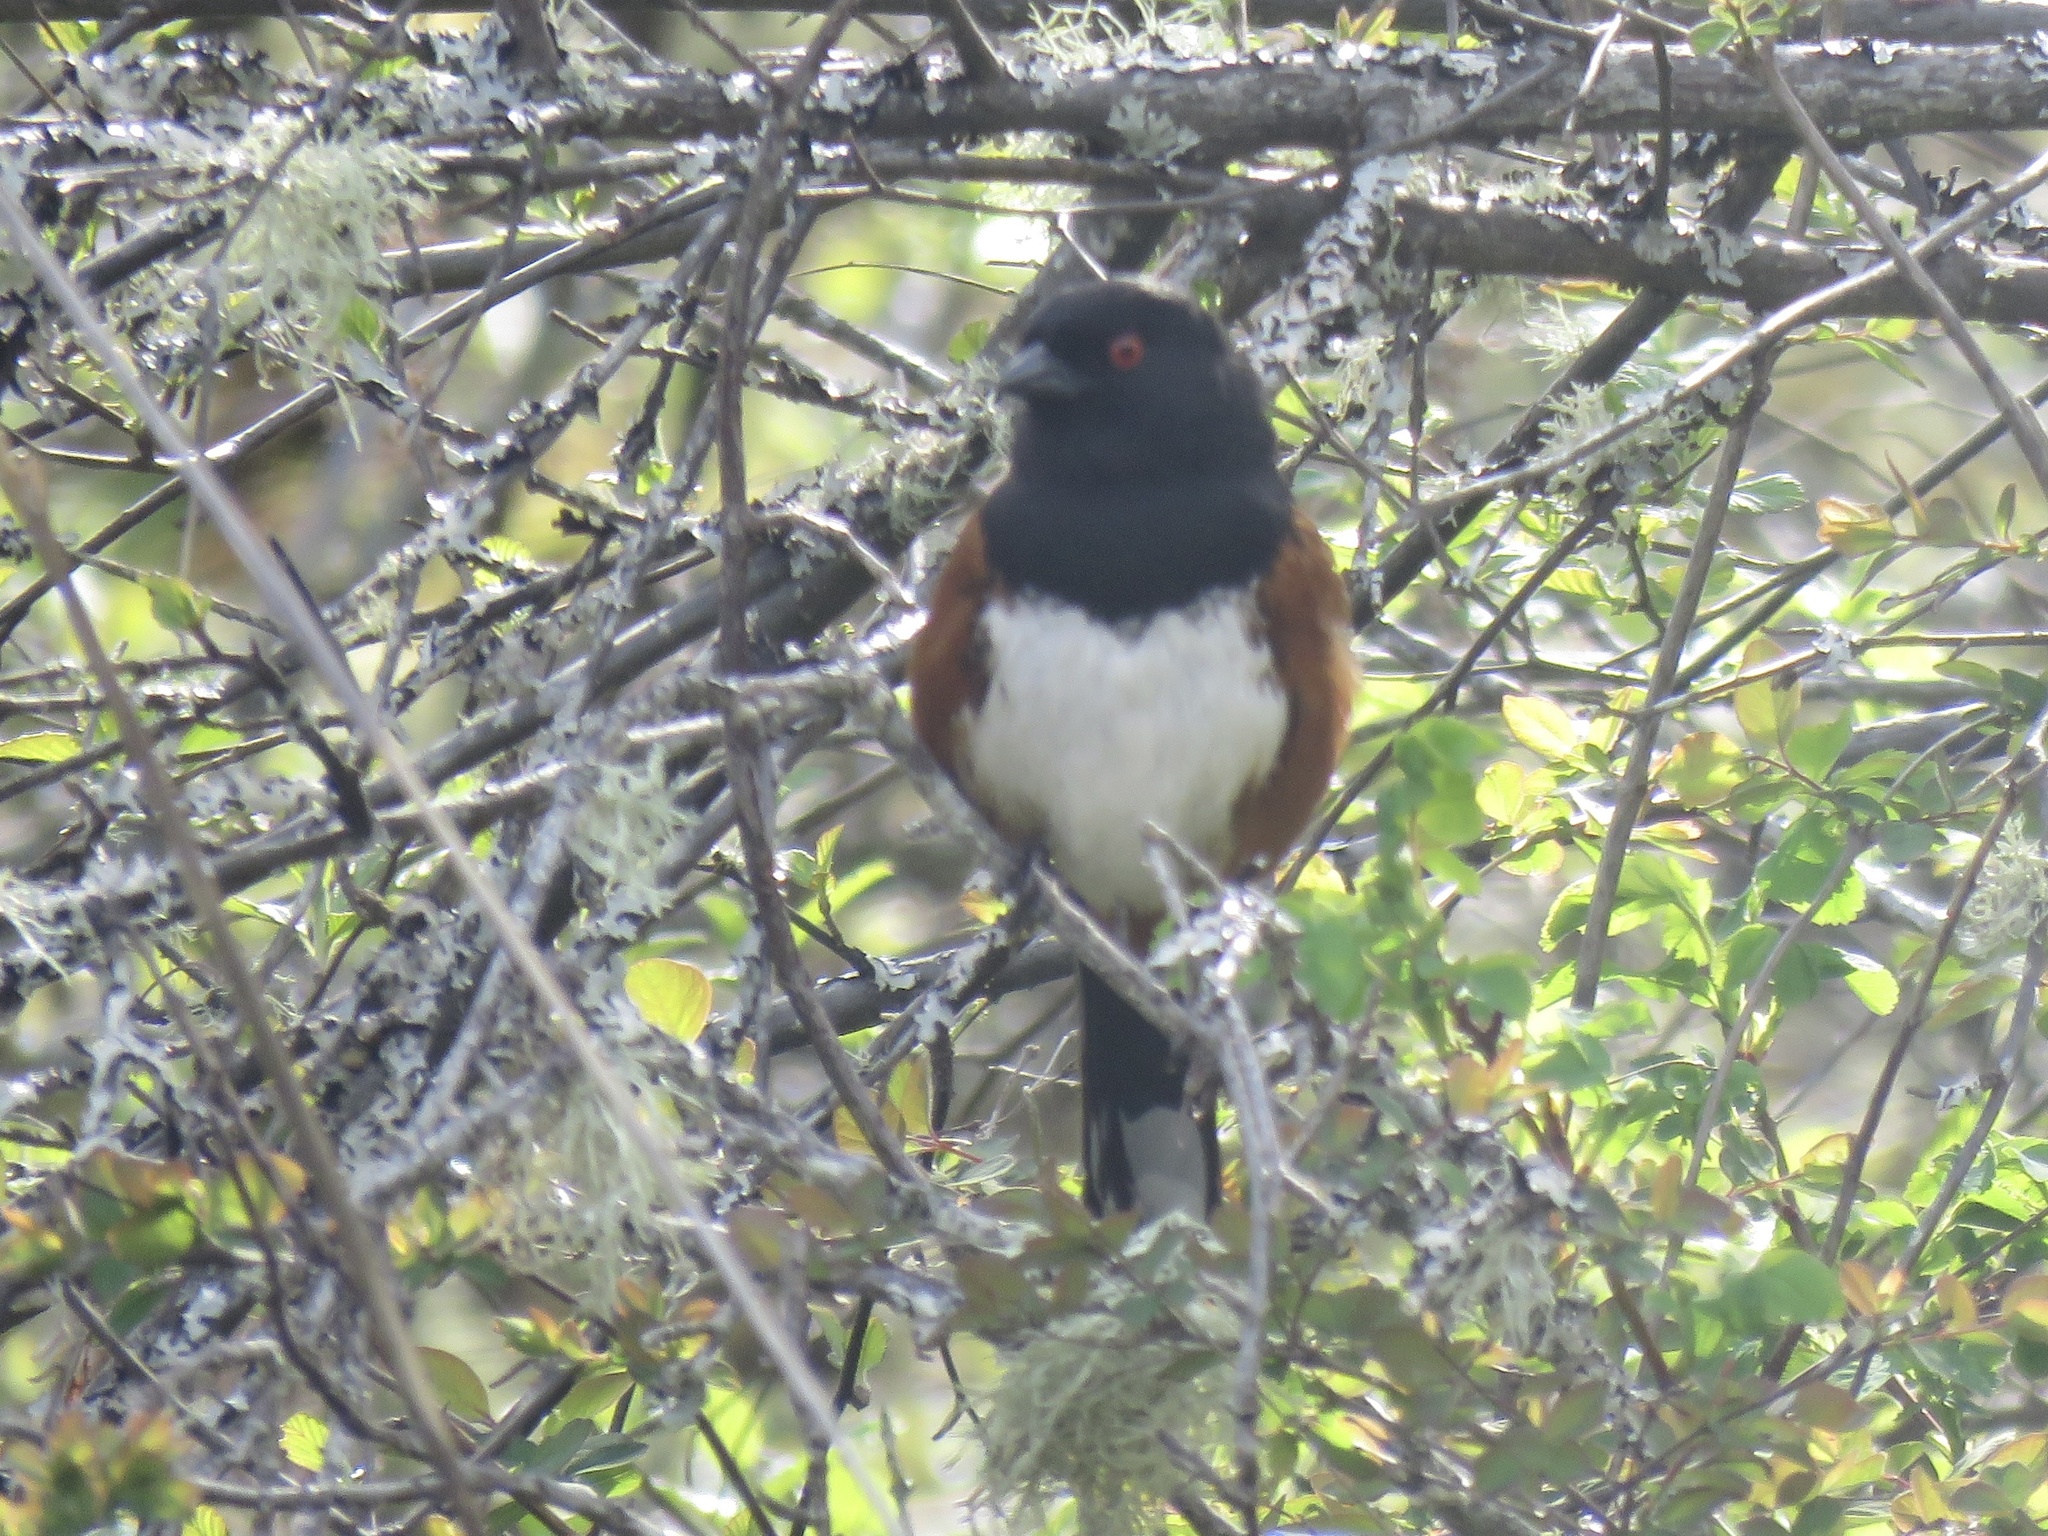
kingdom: Animalia
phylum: Chordata
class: Aves
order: Passeriformes
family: Passerellidae
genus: Pipilo
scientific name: Pipilo maculatus
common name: Spotted towhee
